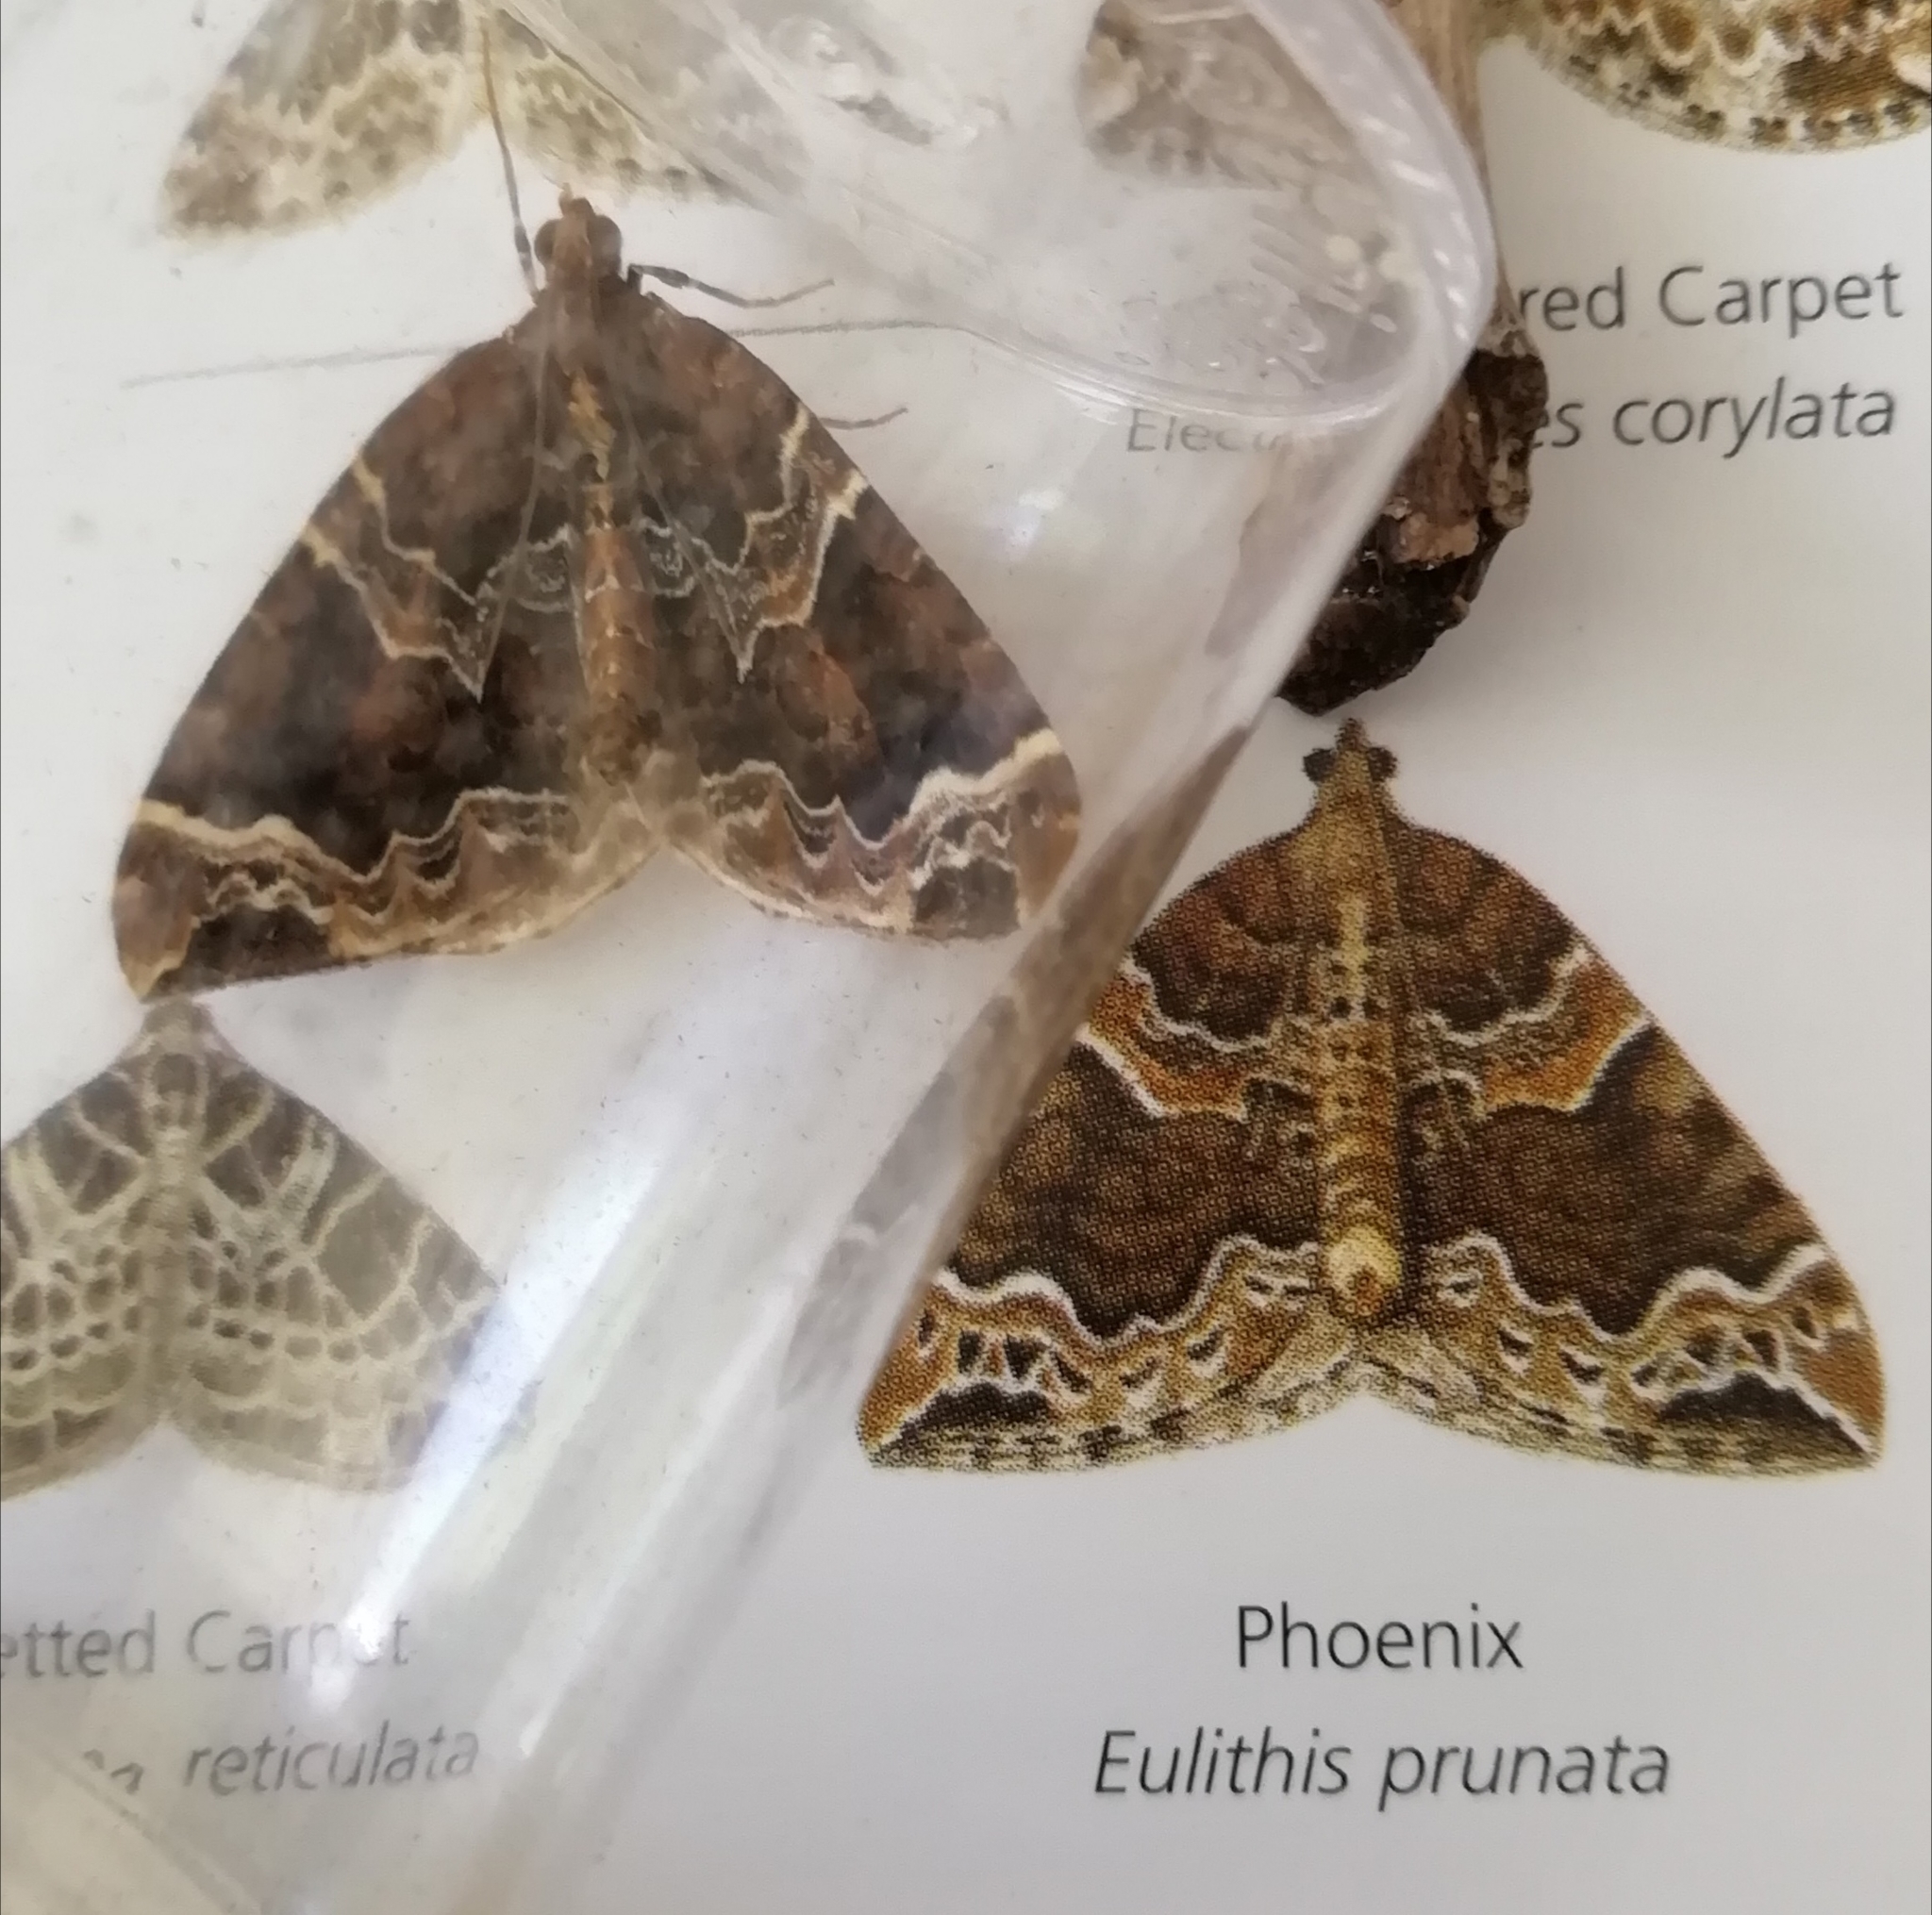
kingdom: Animalia
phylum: Arthropoda
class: Insecta
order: Lepidoptera
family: Geometridae
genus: Eulithis
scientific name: Eulithis prunata
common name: Phoenix
